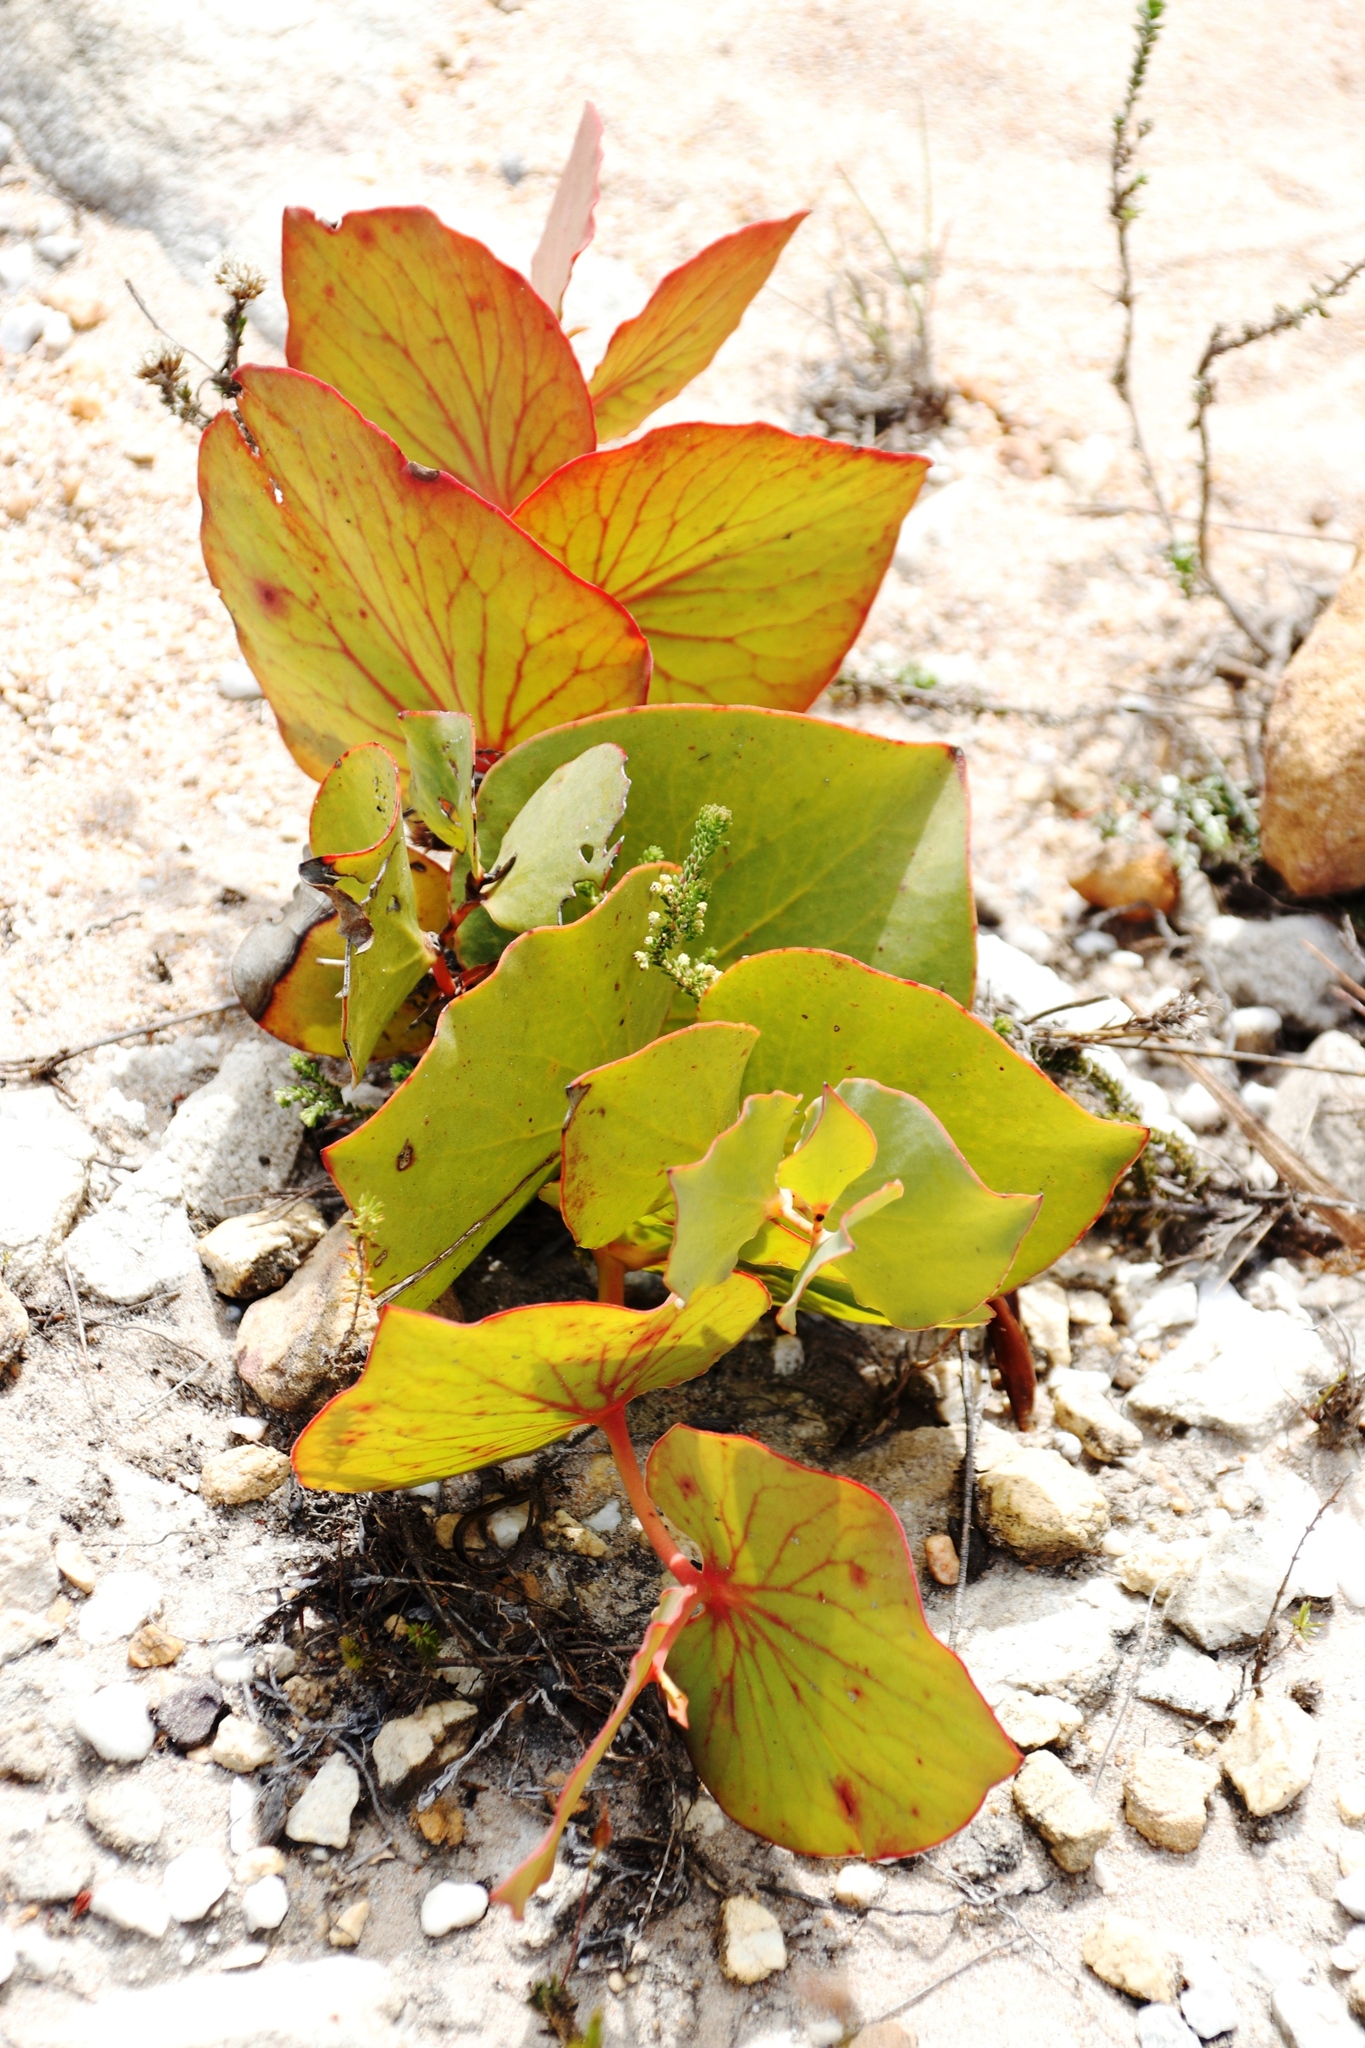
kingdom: Plantae
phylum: Tracheophyta
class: Magnoliopsida
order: Proteales
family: Proteaceae
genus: Protea
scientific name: Protea cordata
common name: Heart-leaf sugarbush
